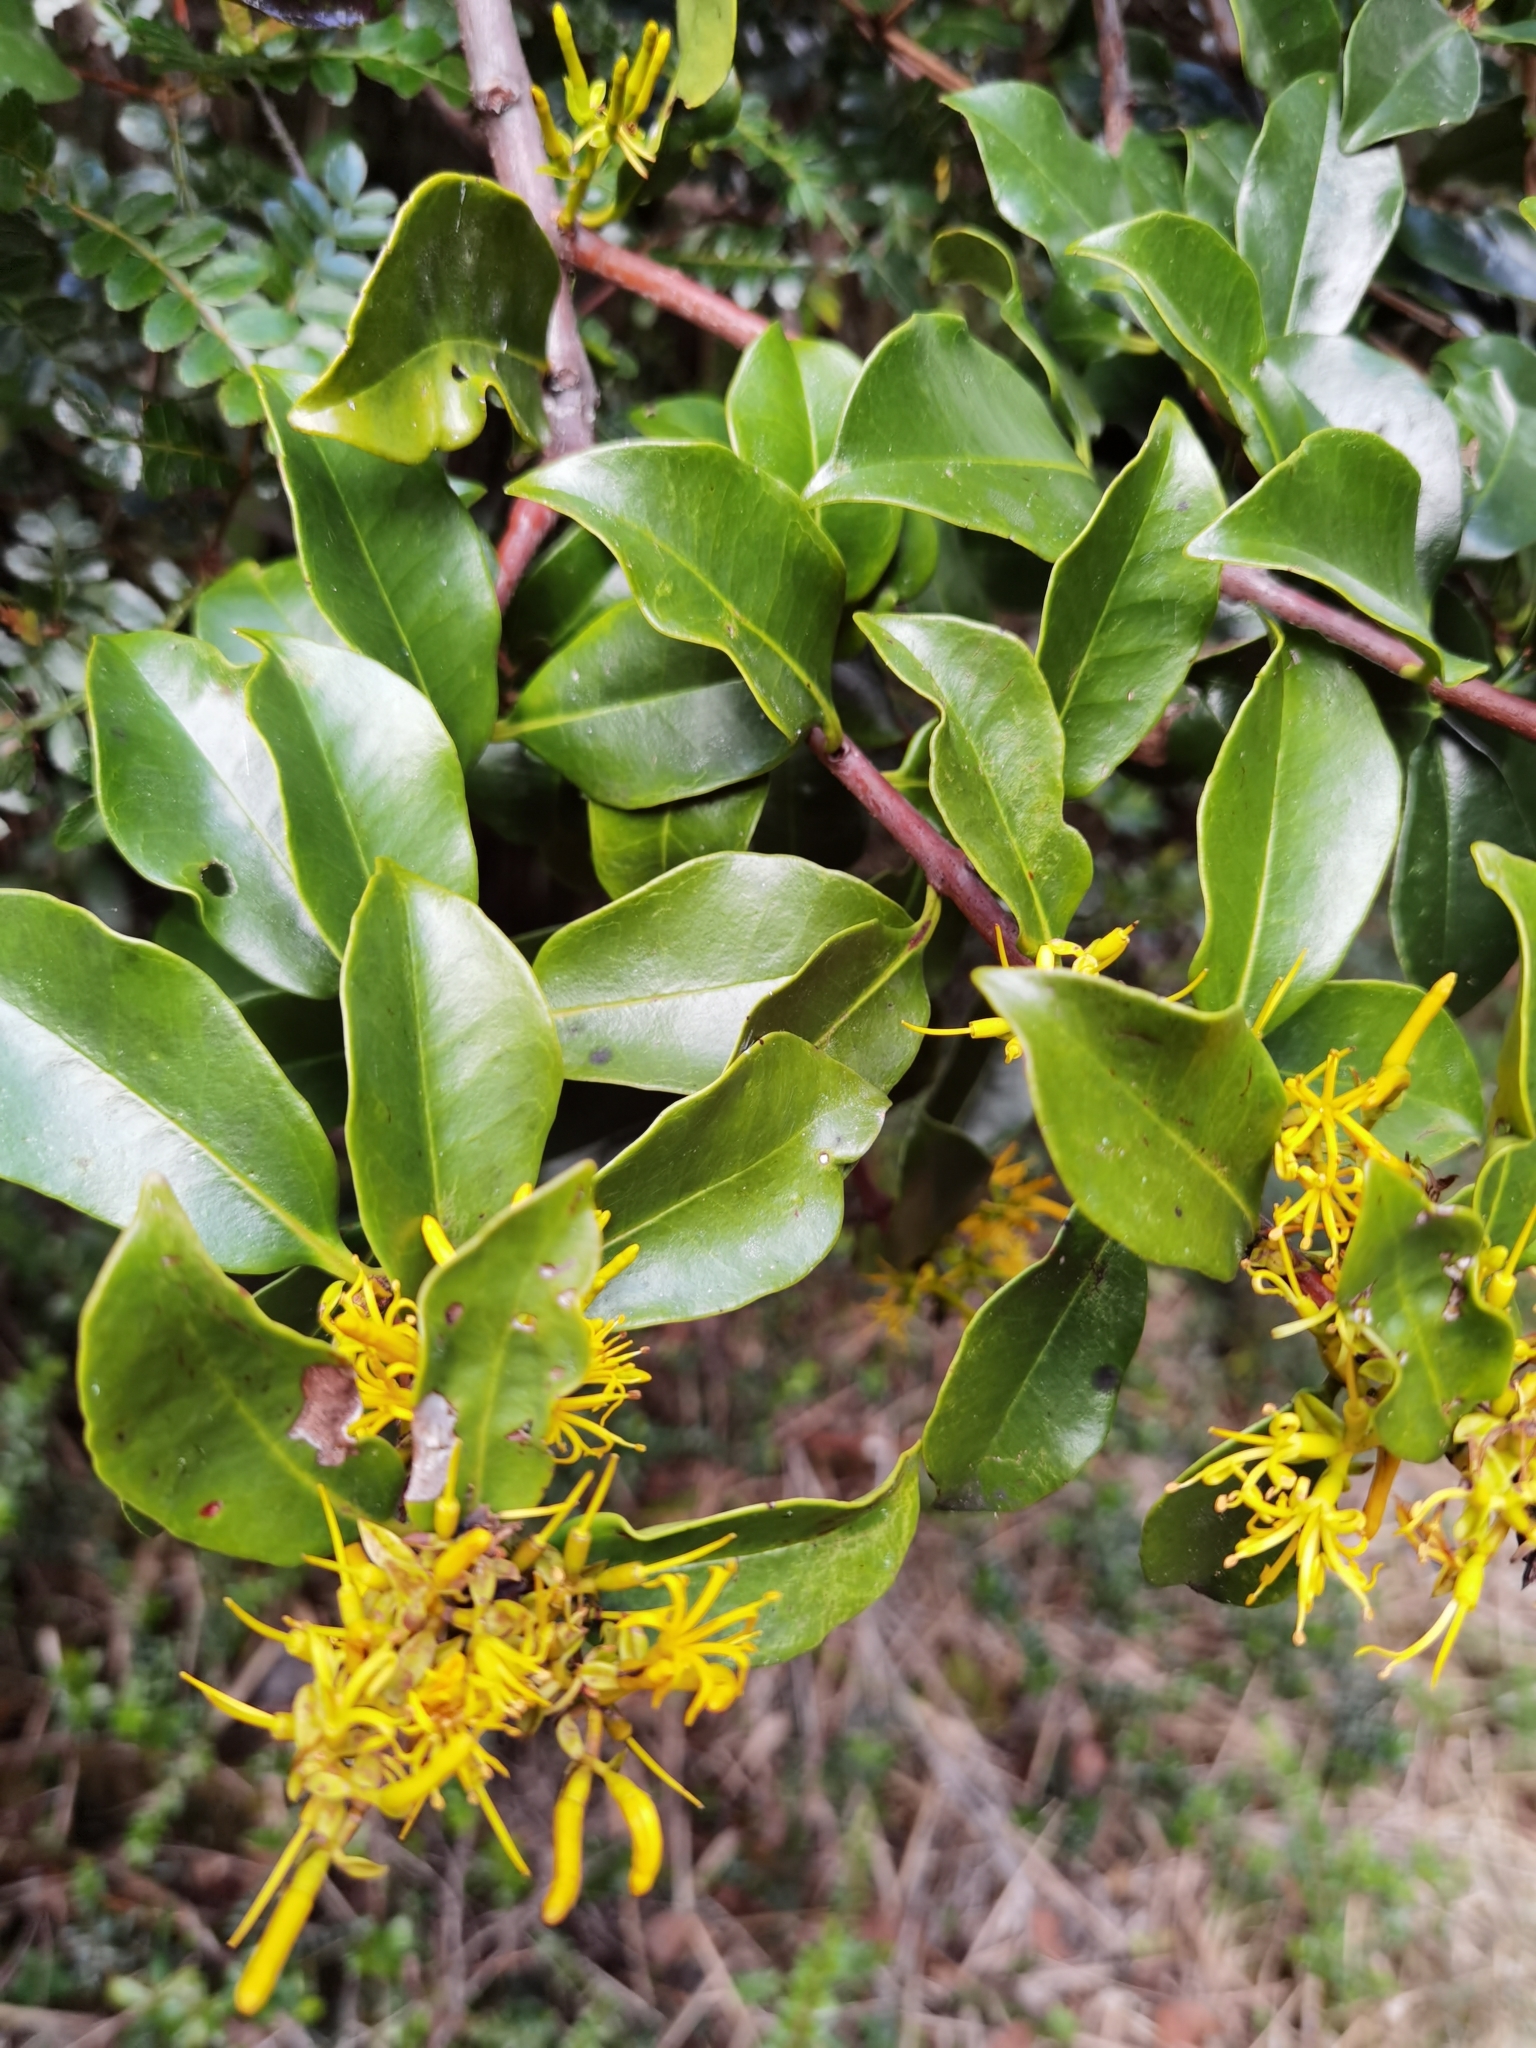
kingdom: Plantae
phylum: Tracheophyta
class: Magnoliopsida
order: Santalales
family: Loranthaceae
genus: Gaiadendron
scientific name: Gaiadendron punctatum
